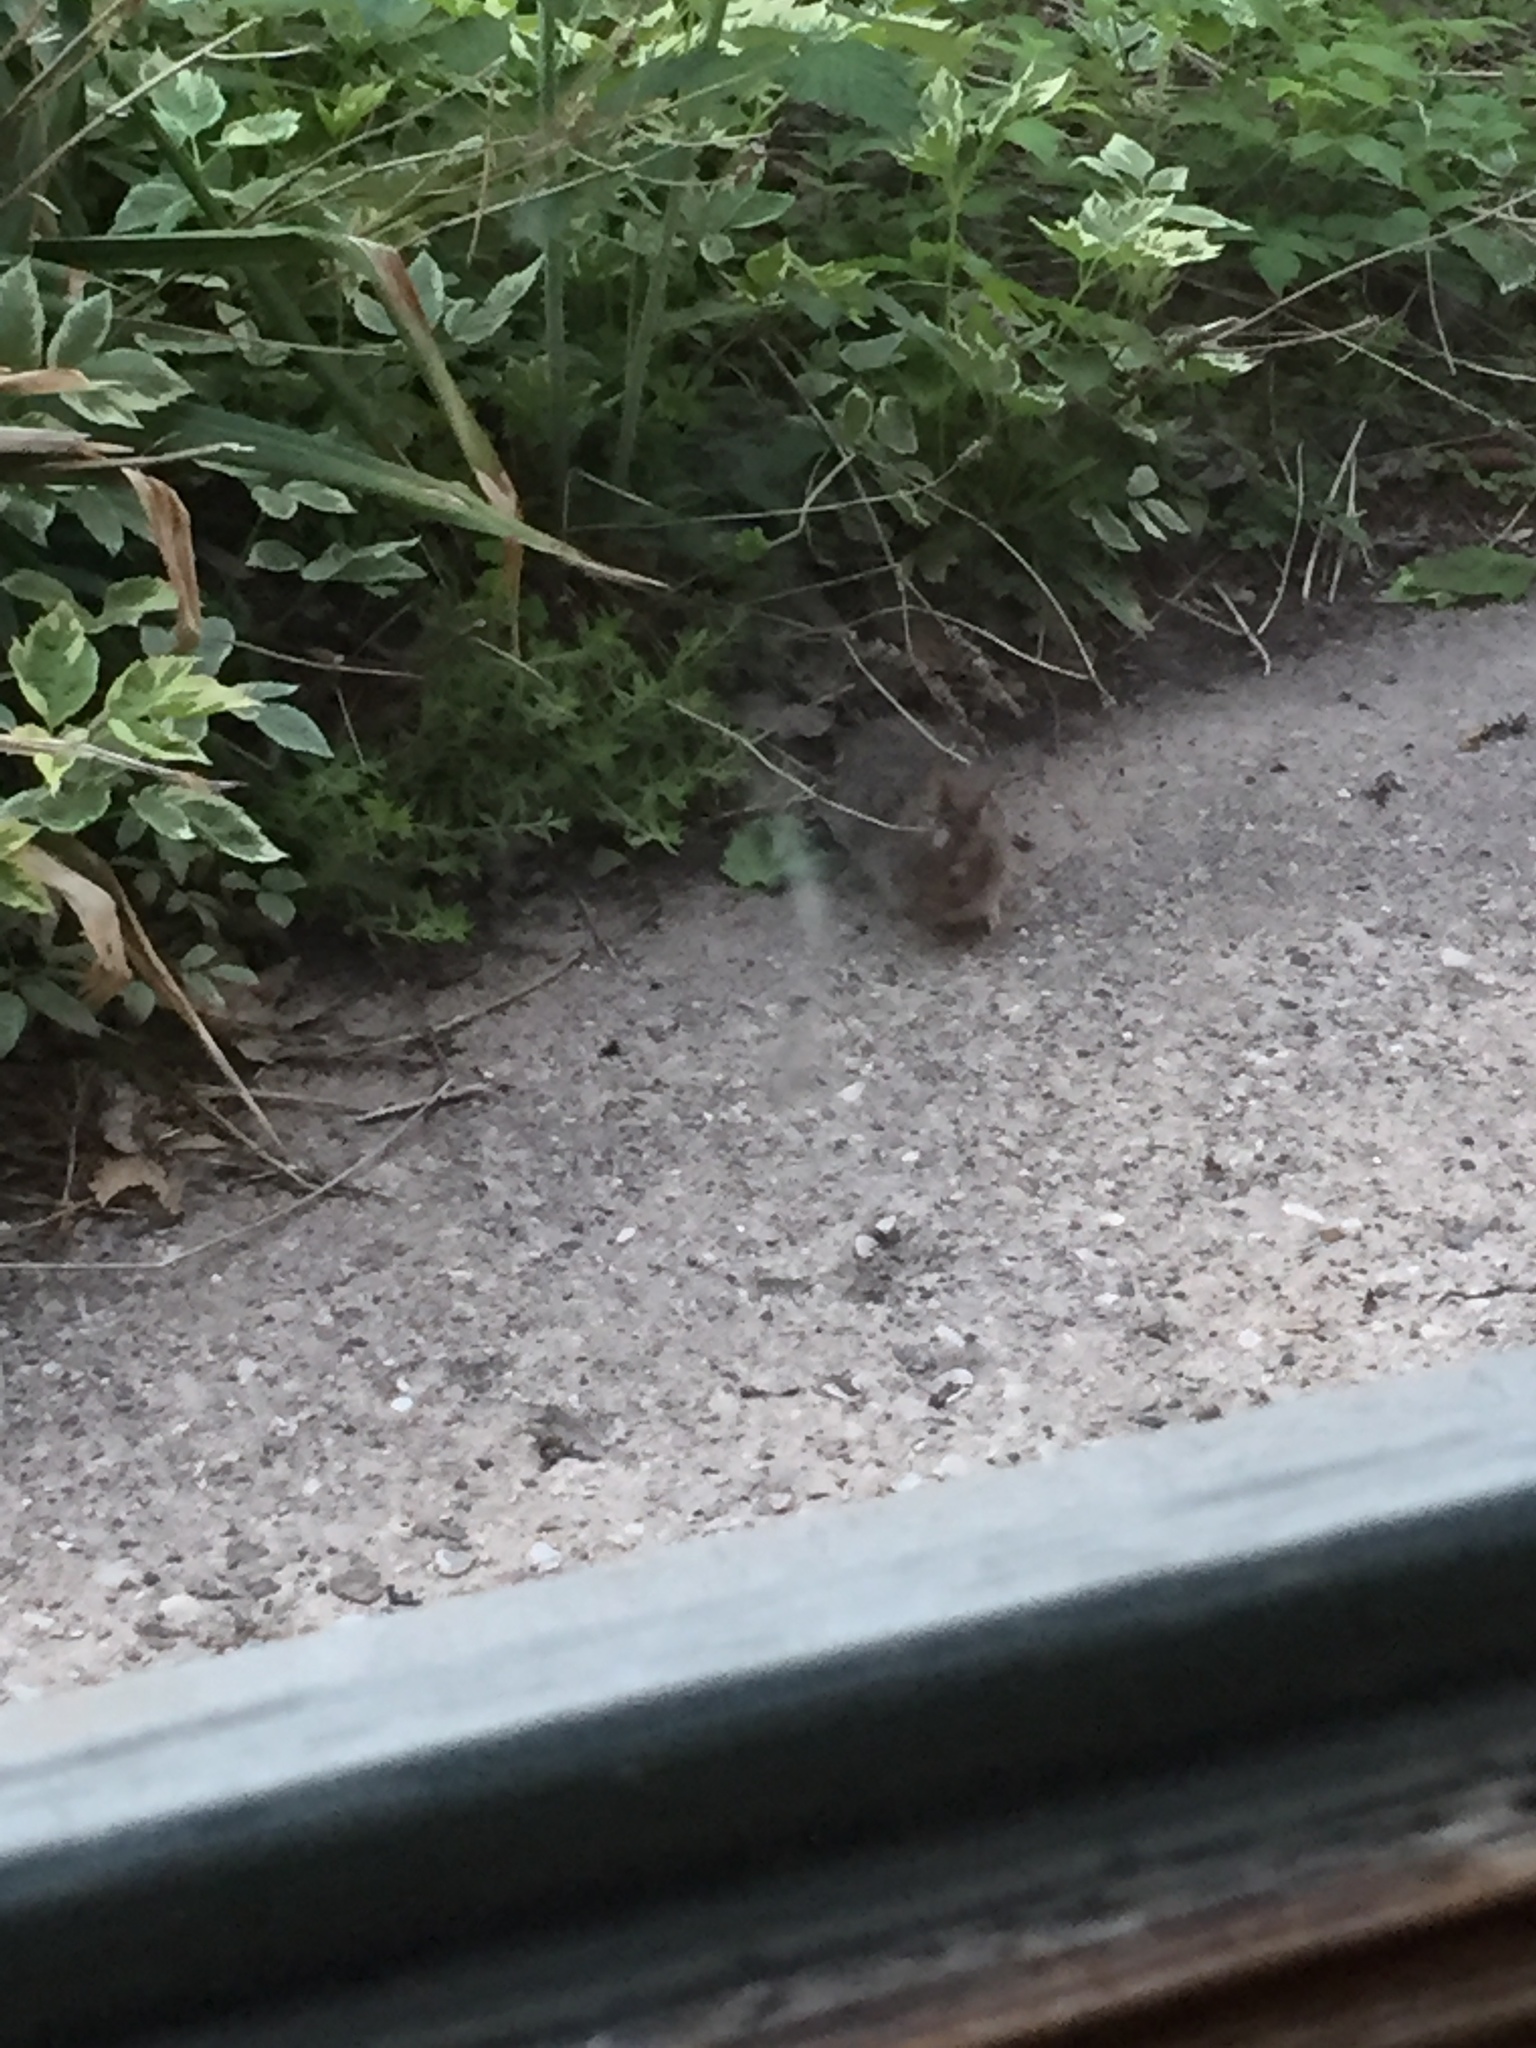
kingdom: Animalia
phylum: Chordata
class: Mammalia
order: Lagomorpha
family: Leporidae
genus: Sylvilagus
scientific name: Sylvilagus floridanus
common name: Eastern cottontail
